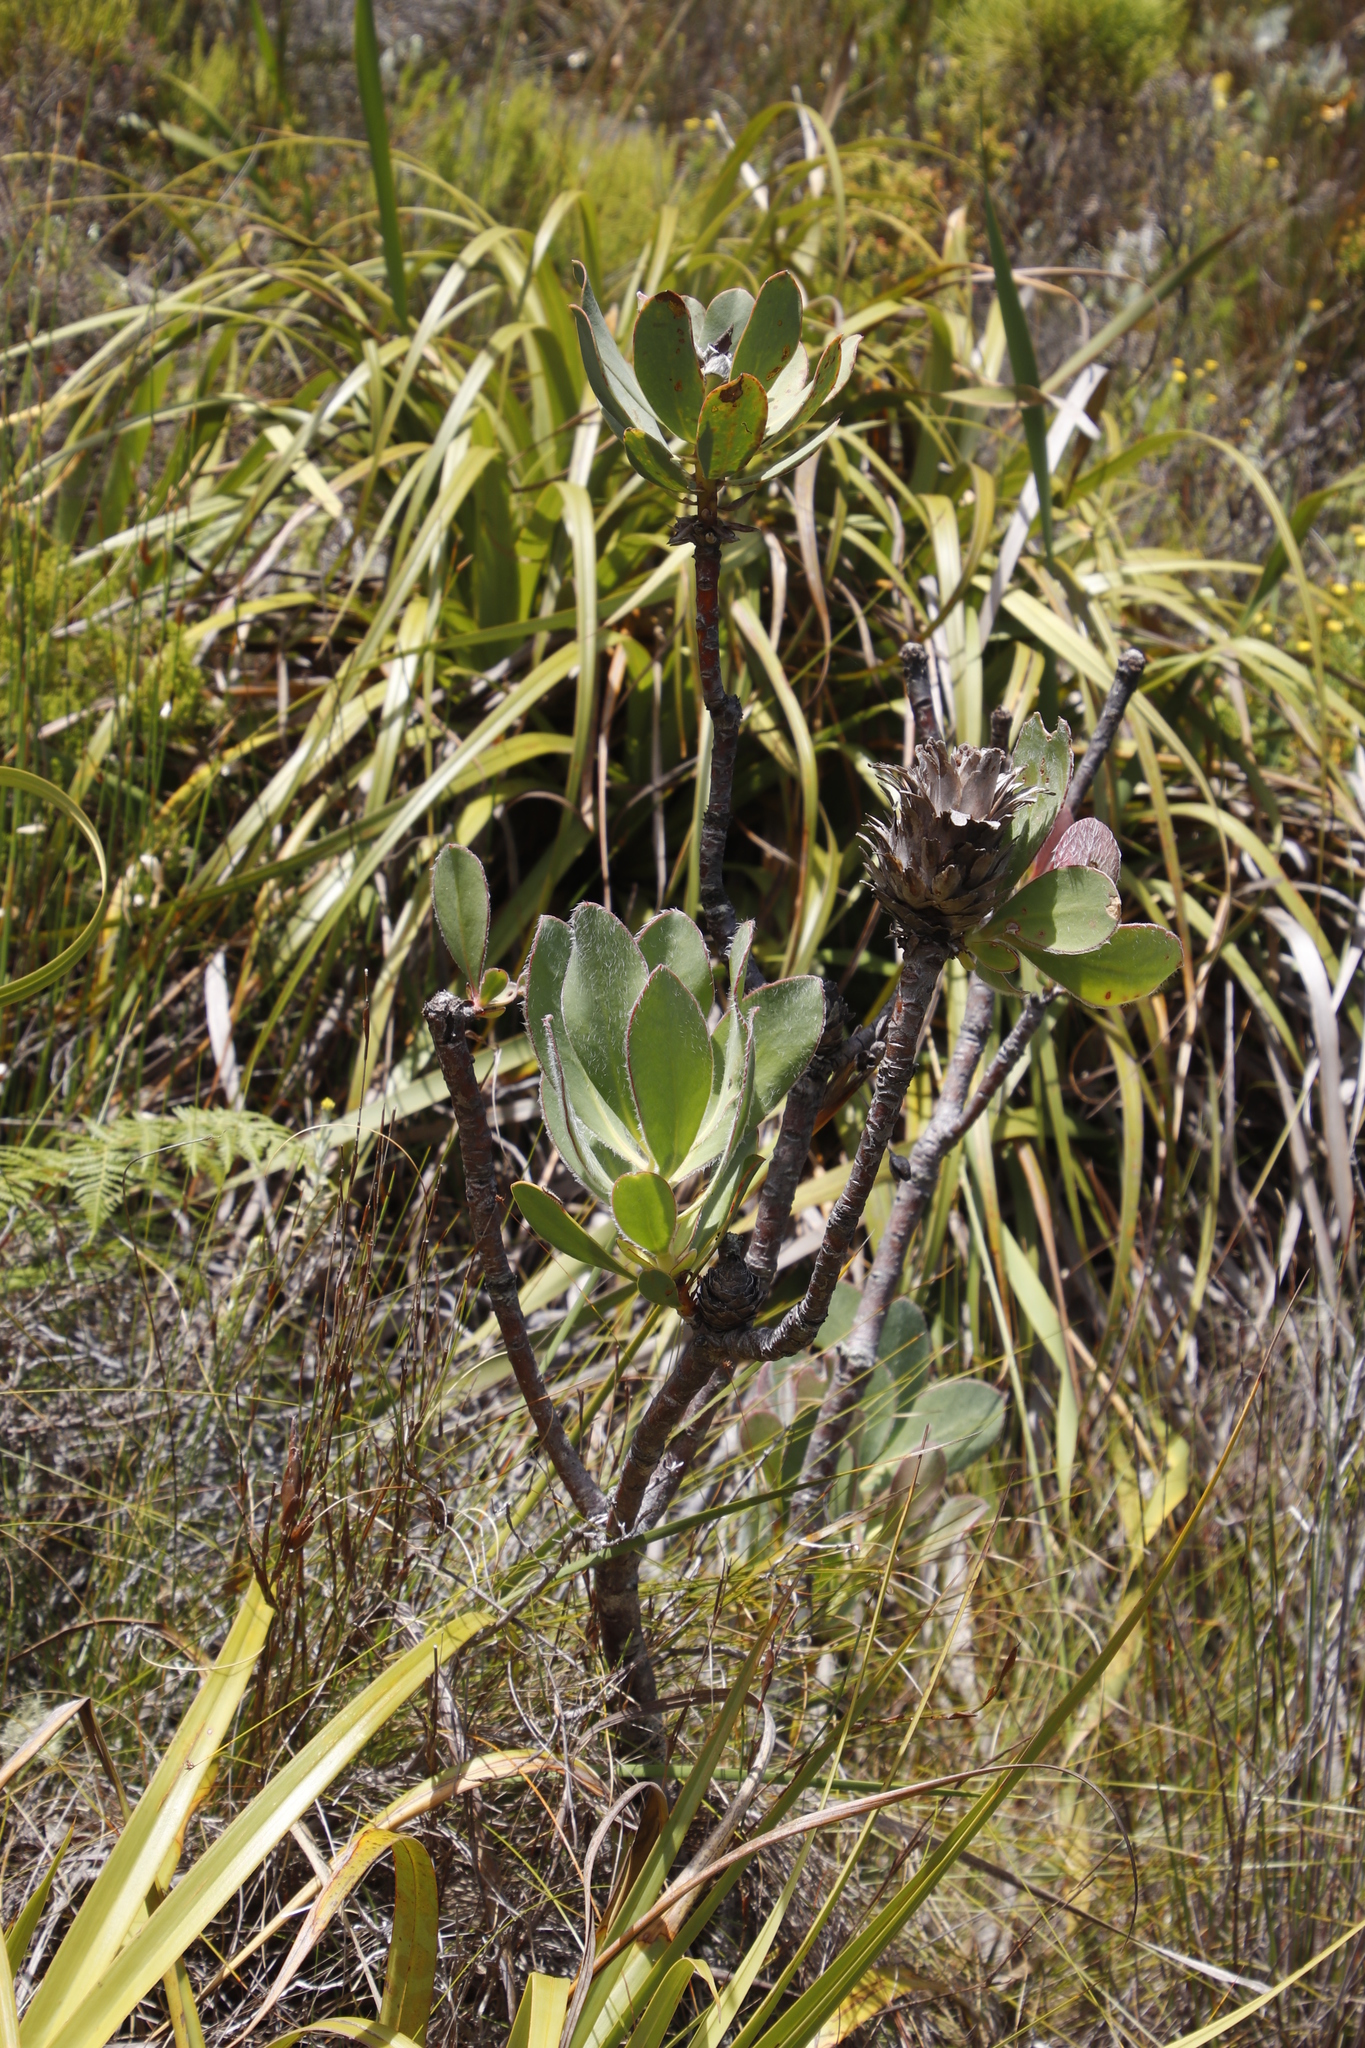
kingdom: Plantae
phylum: Tracheophyta
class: Magnoliopsida
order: Proteales
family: Proteaceae
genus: Protea
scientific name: Protea speciosa
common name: Brown-beard sugarbush
